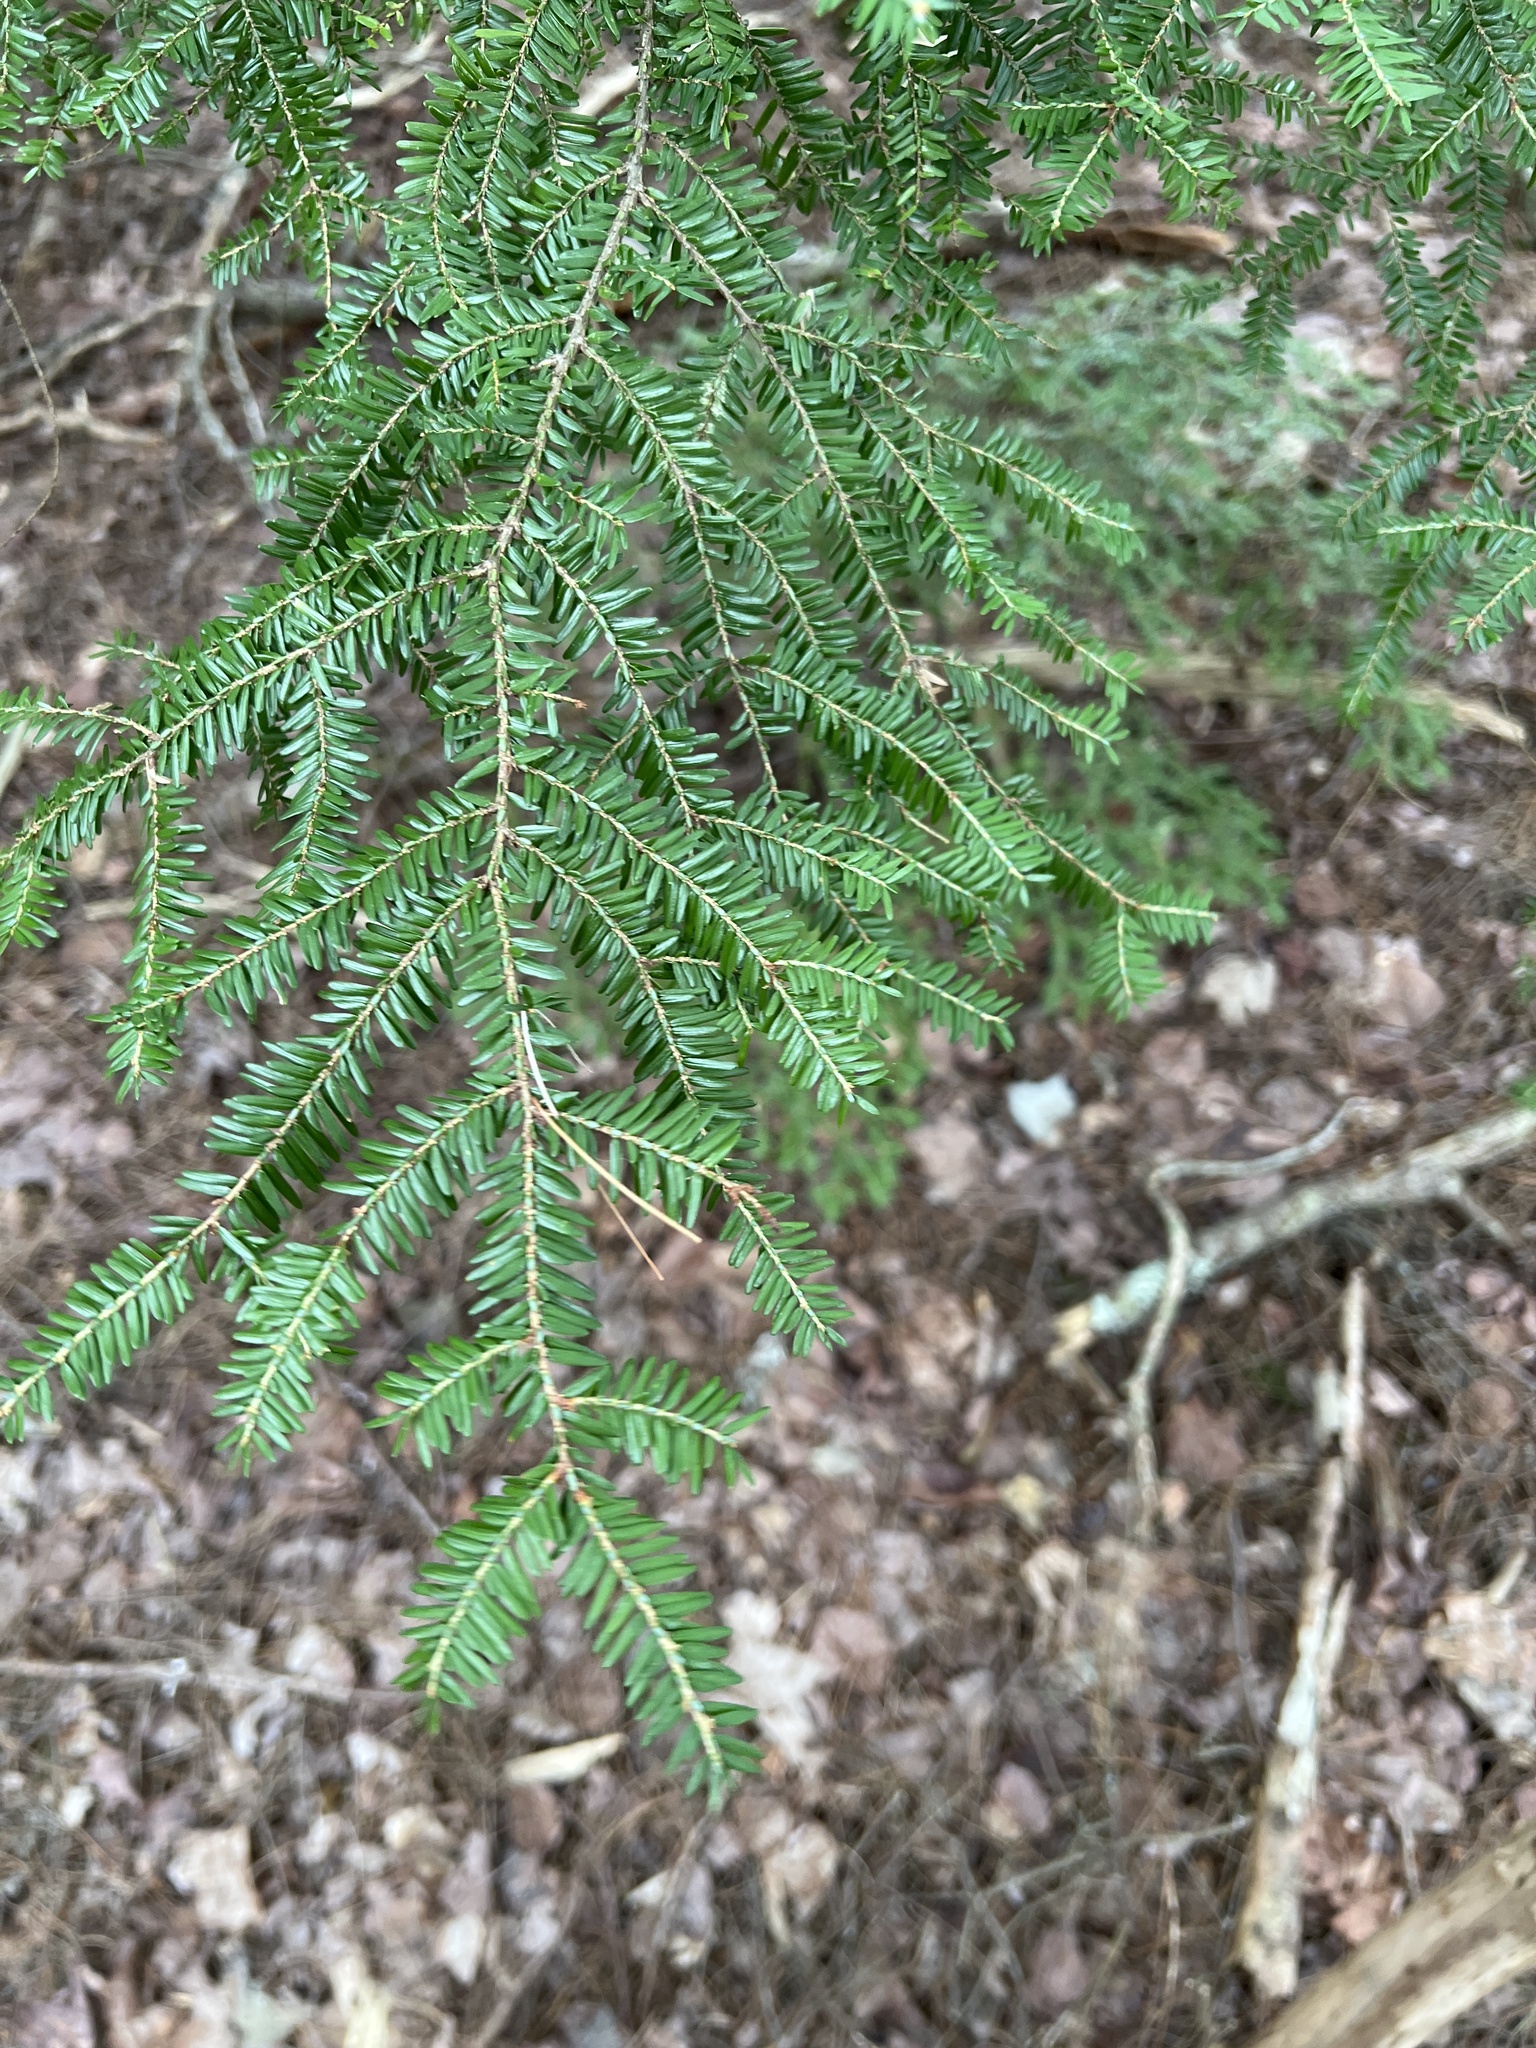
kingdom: Plantae
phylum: Tracheophyta
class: Pinopsida
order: Pinales
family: Pinaceae
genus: Tsuga
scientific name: Tsuga canadensis
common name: Eastern hemlock
